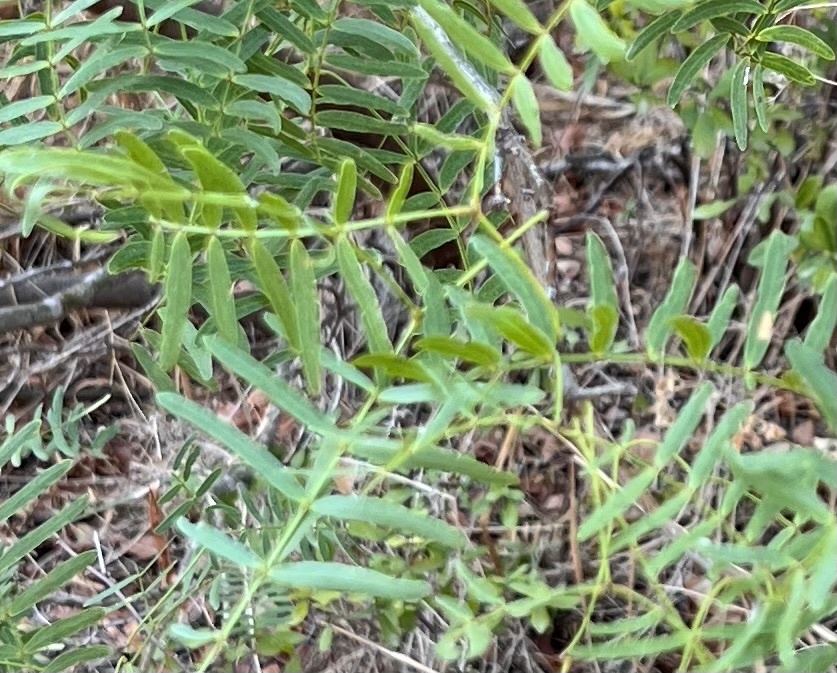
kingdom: Plantae
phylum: Tracheophyta
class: Magnoliopsida
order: Fabales
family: Fabaceae
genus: Prosopis
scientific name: Prosopis glandulosa
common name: Honey mesquite
